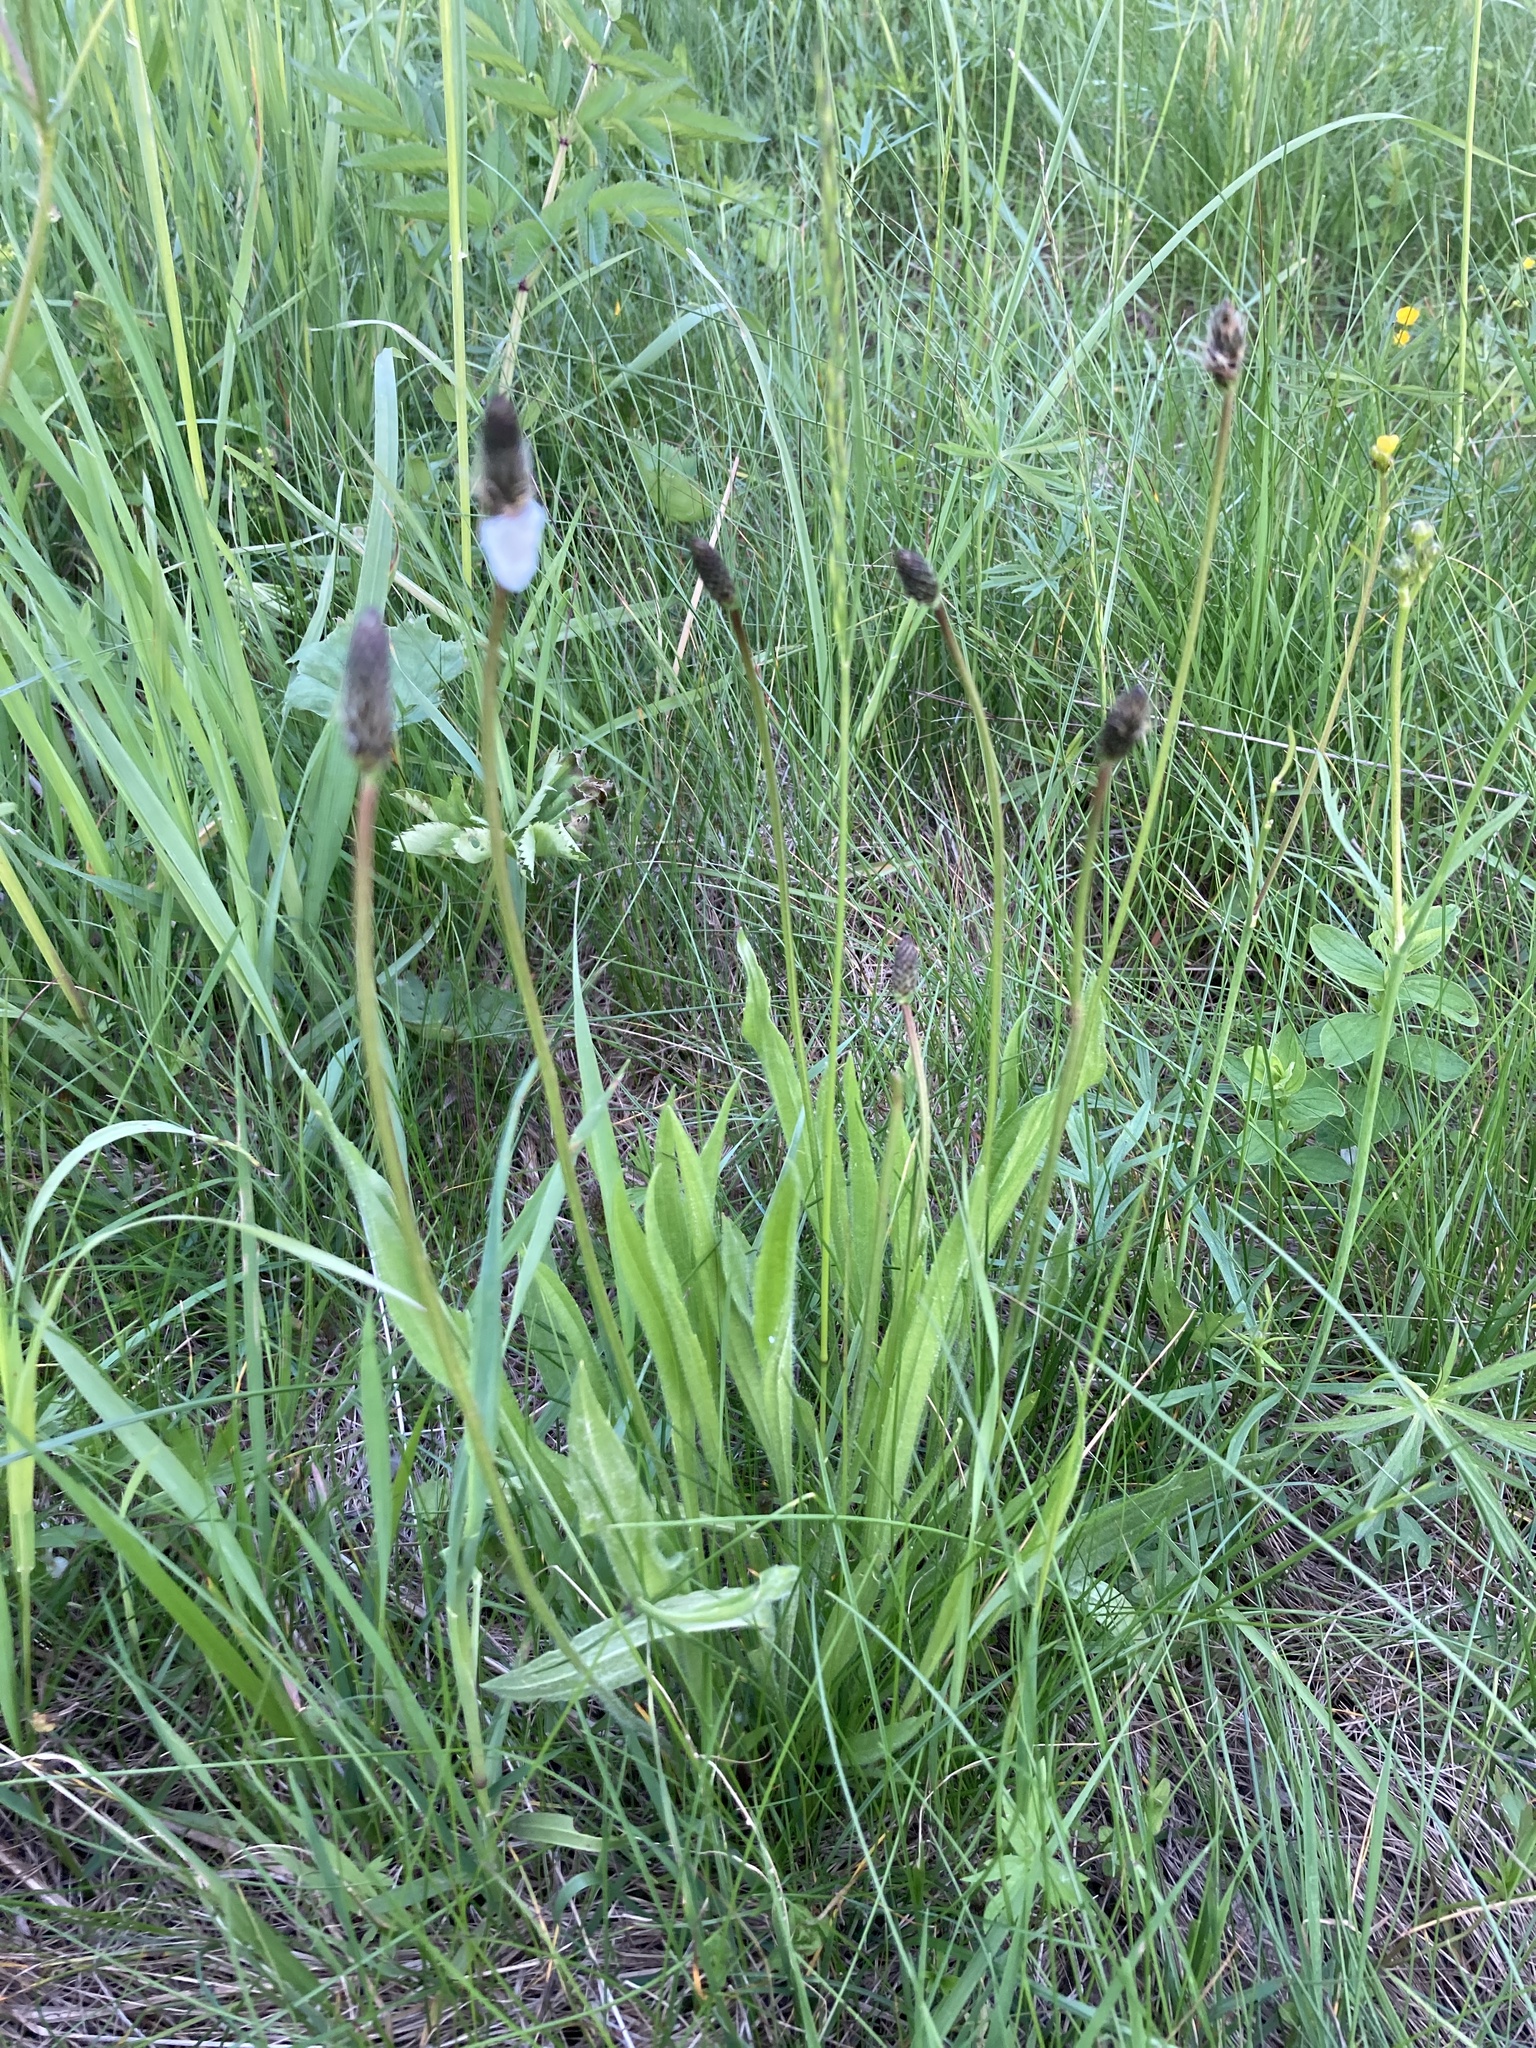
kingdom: Plantae
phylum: Tracheophyta
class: Magnoliopsida
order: Lamiales
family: Plantaginaceae
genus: Plantago
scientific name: Plantago lanceolata
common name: Ribwort plantain
